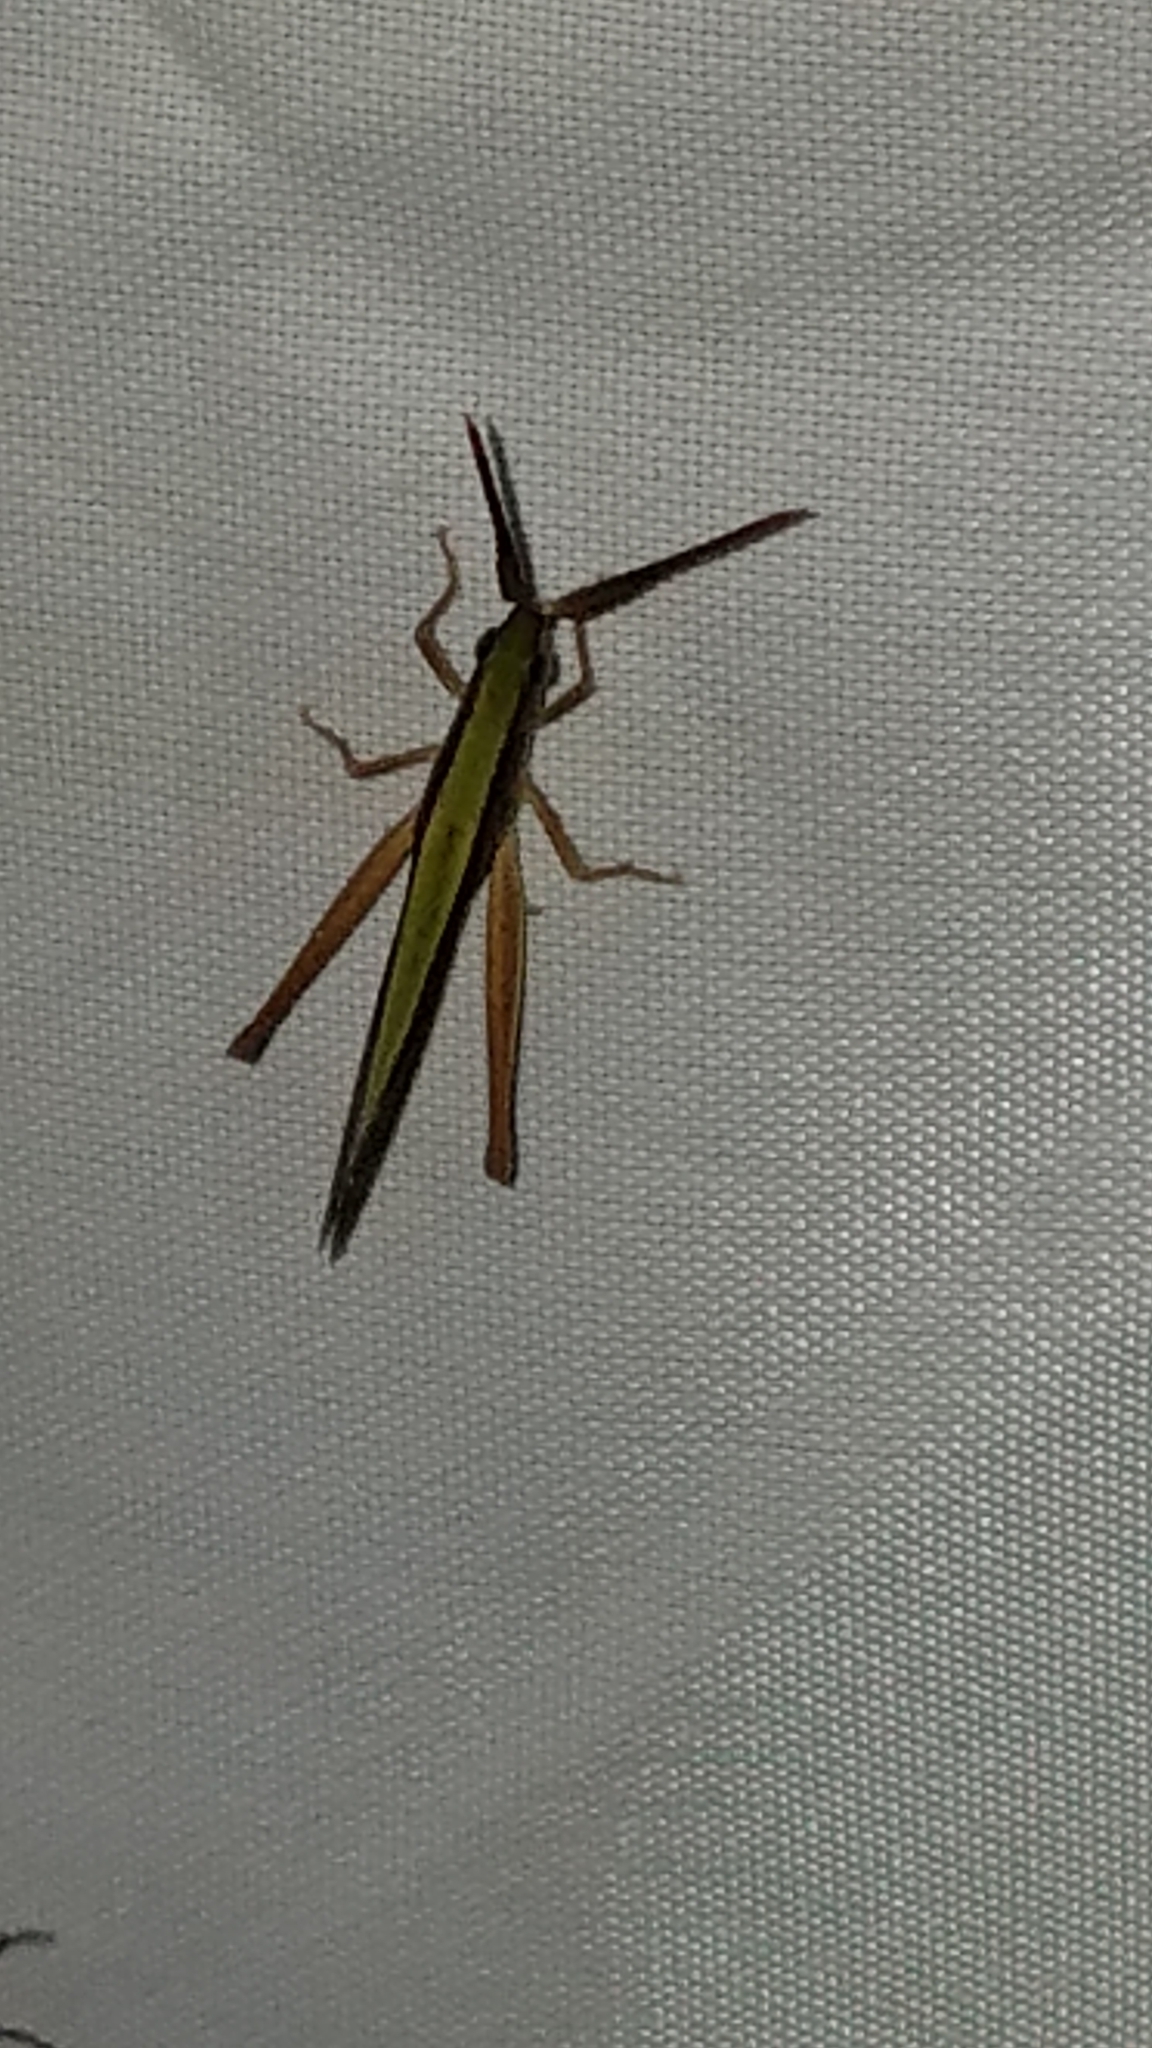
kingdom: Animalia
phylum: Arthropoda
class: Insecta
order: Orthoptera
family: Acrididae
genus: Achurum
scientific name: Achurum sumichrasti
